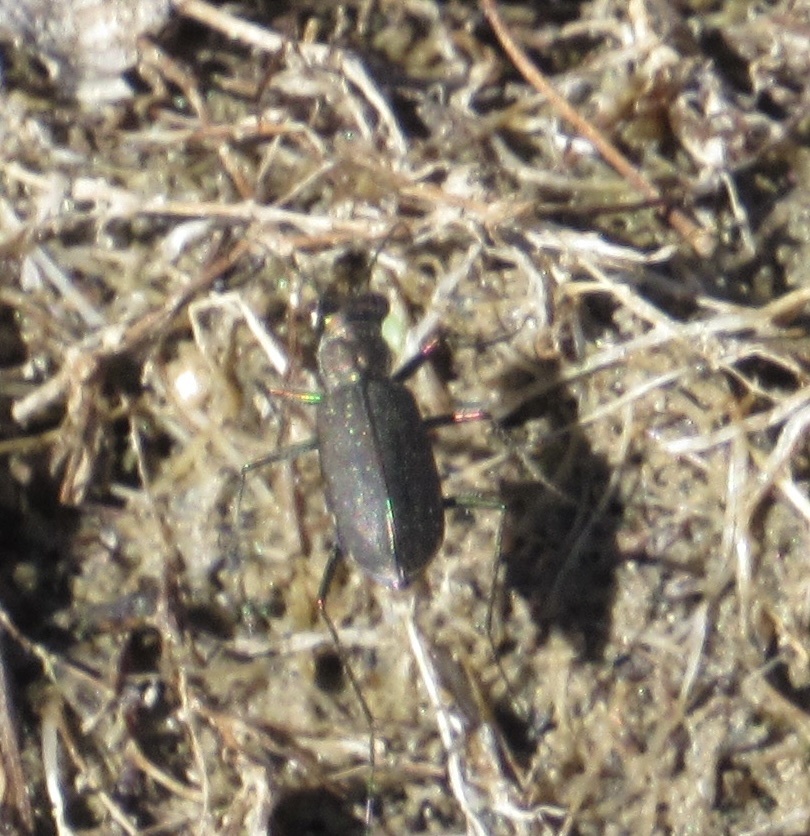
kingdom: Animalia
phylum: Arthropoda
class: Insecta
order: Coleoptera
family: Carabidae
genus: Cicindela
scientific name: Cicindela punctulata
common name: Punctured tiger beetle
